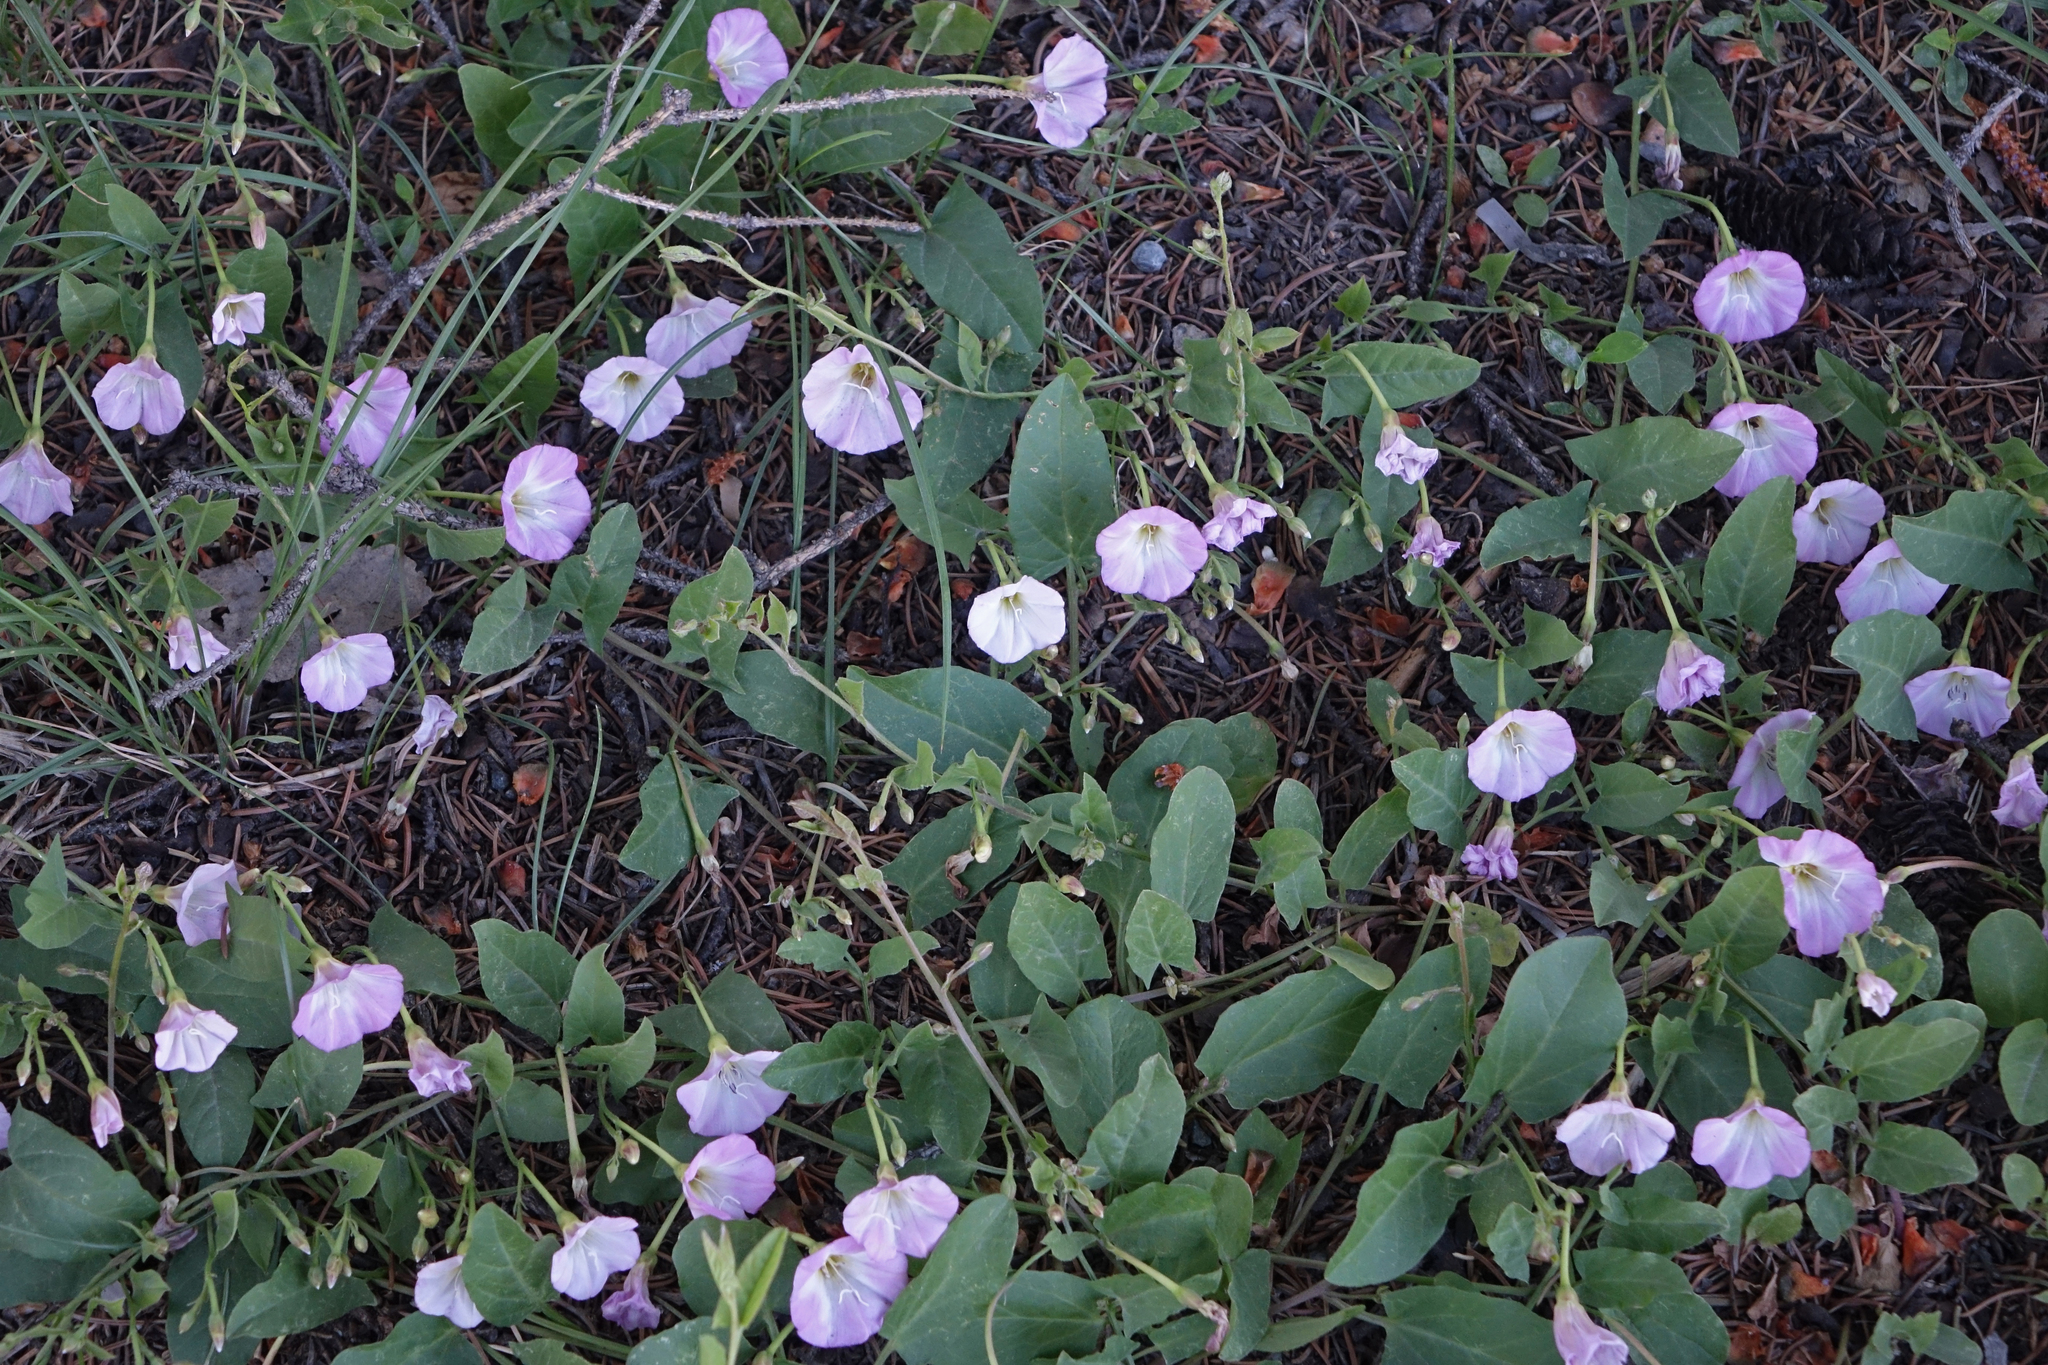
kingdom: Plantae
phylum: Tracheophyta
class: Magnoliopsida
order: Solanales
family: Convolvulaceae
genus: Convolvulus
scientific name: Convolvulus arvensis
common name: Field bindweed
